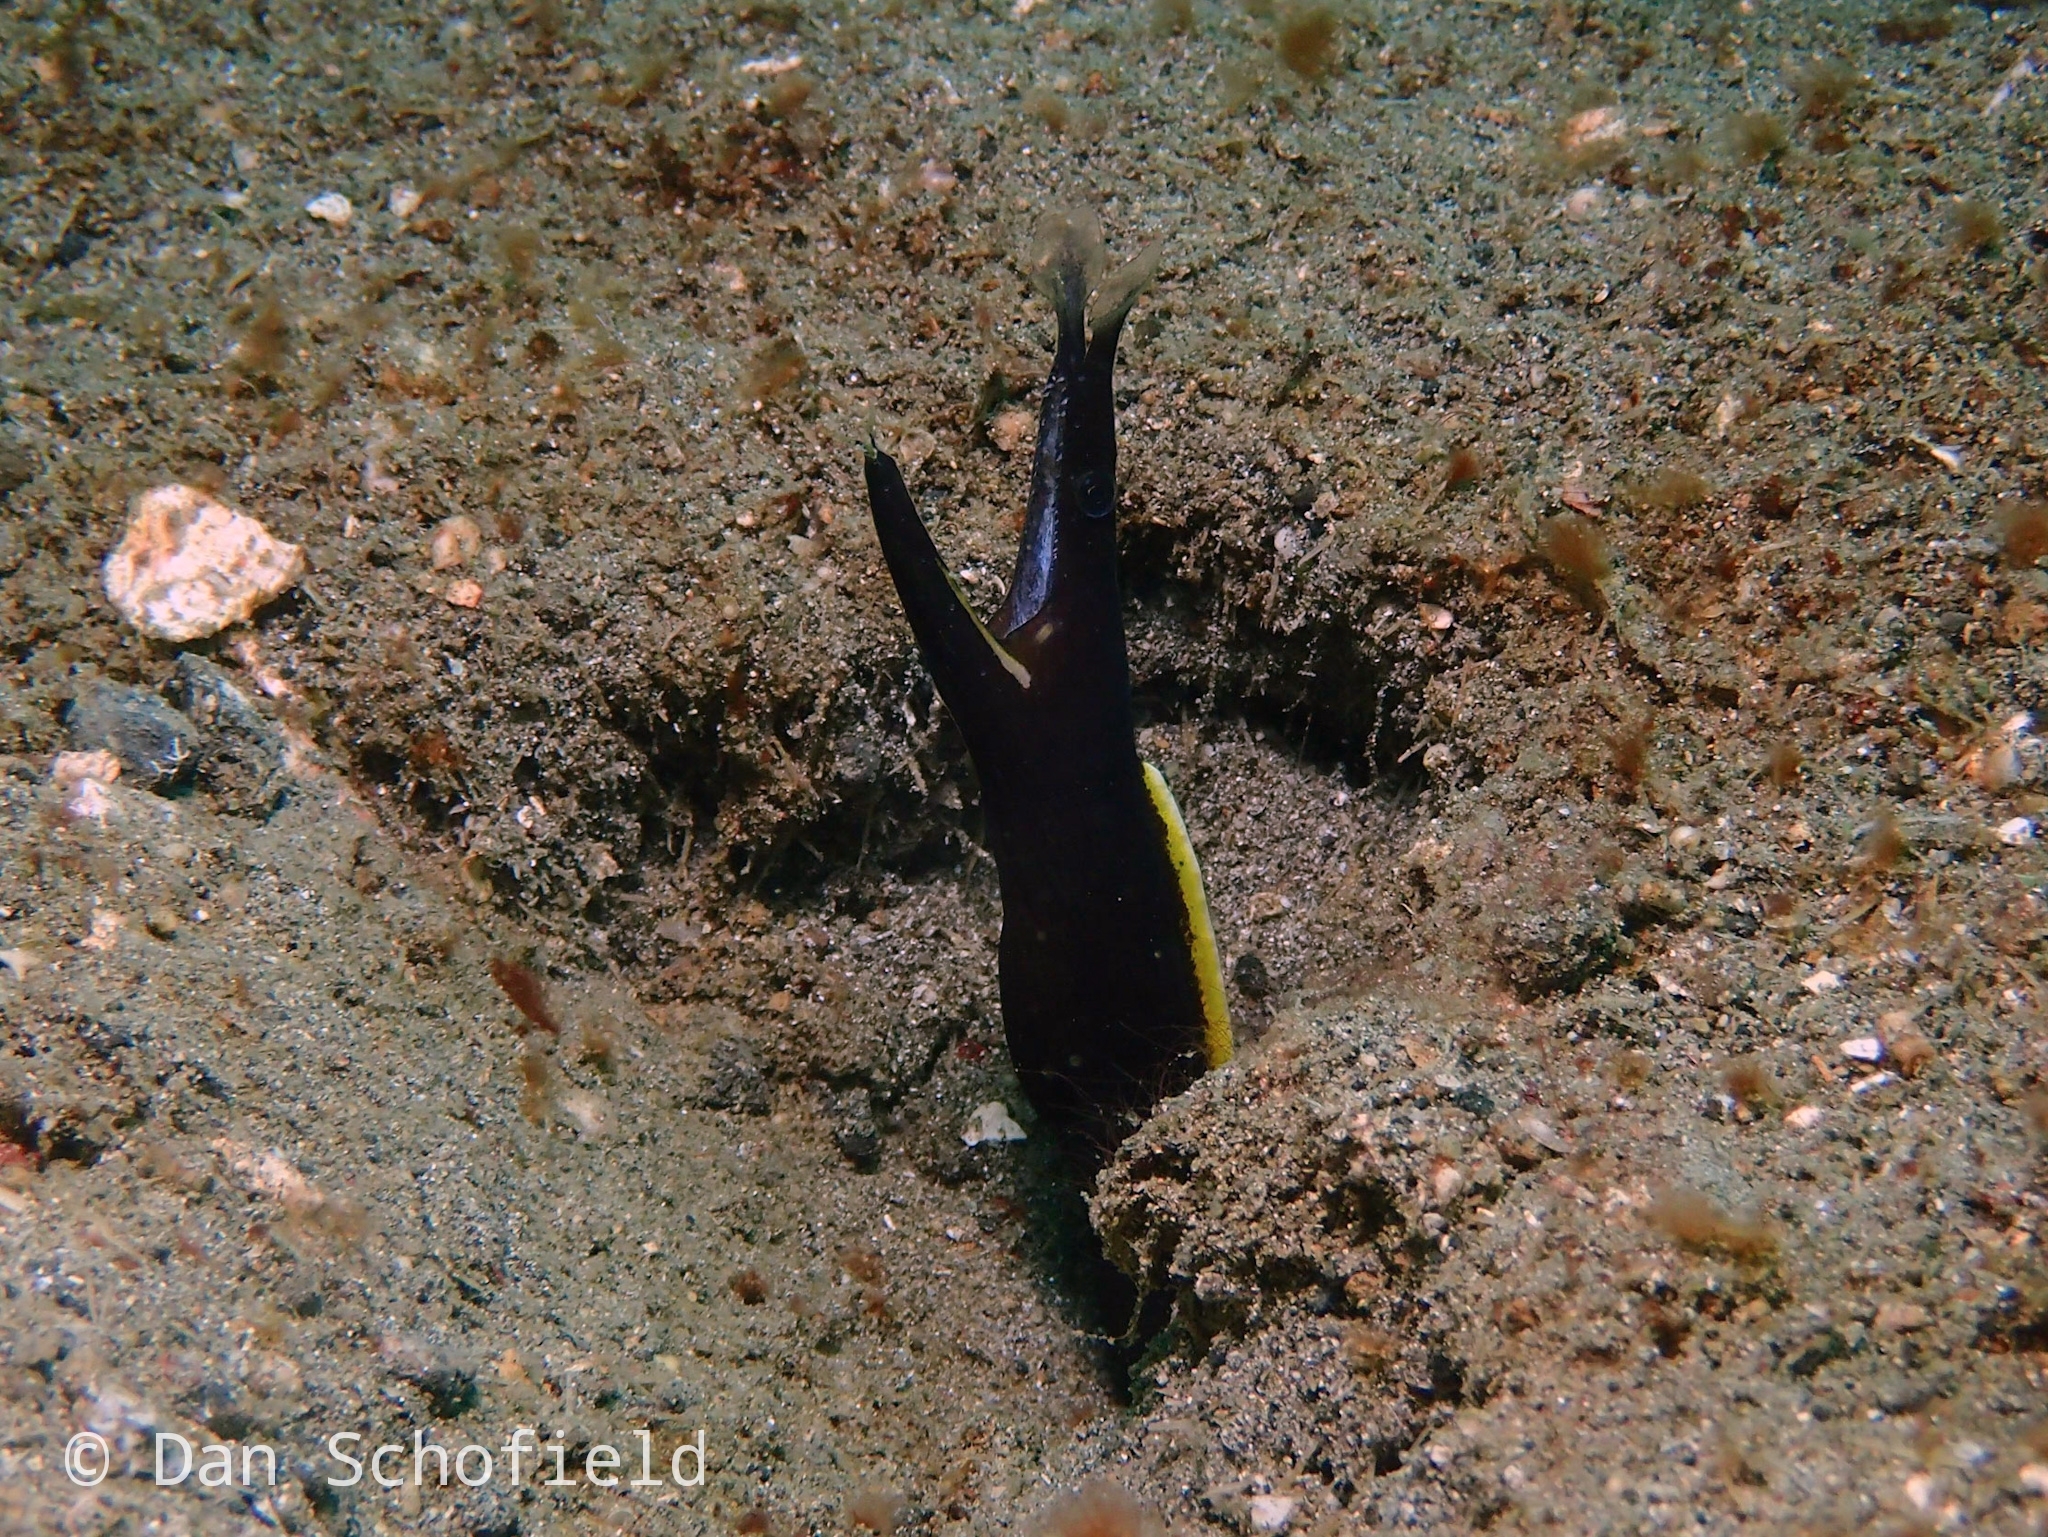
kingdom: Animalia
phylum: Chordata
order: Anguilliformes
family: Muraenidae
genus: Rhinomuraena
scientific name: Rhinomuraena quaesita
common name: Ribbon eel
